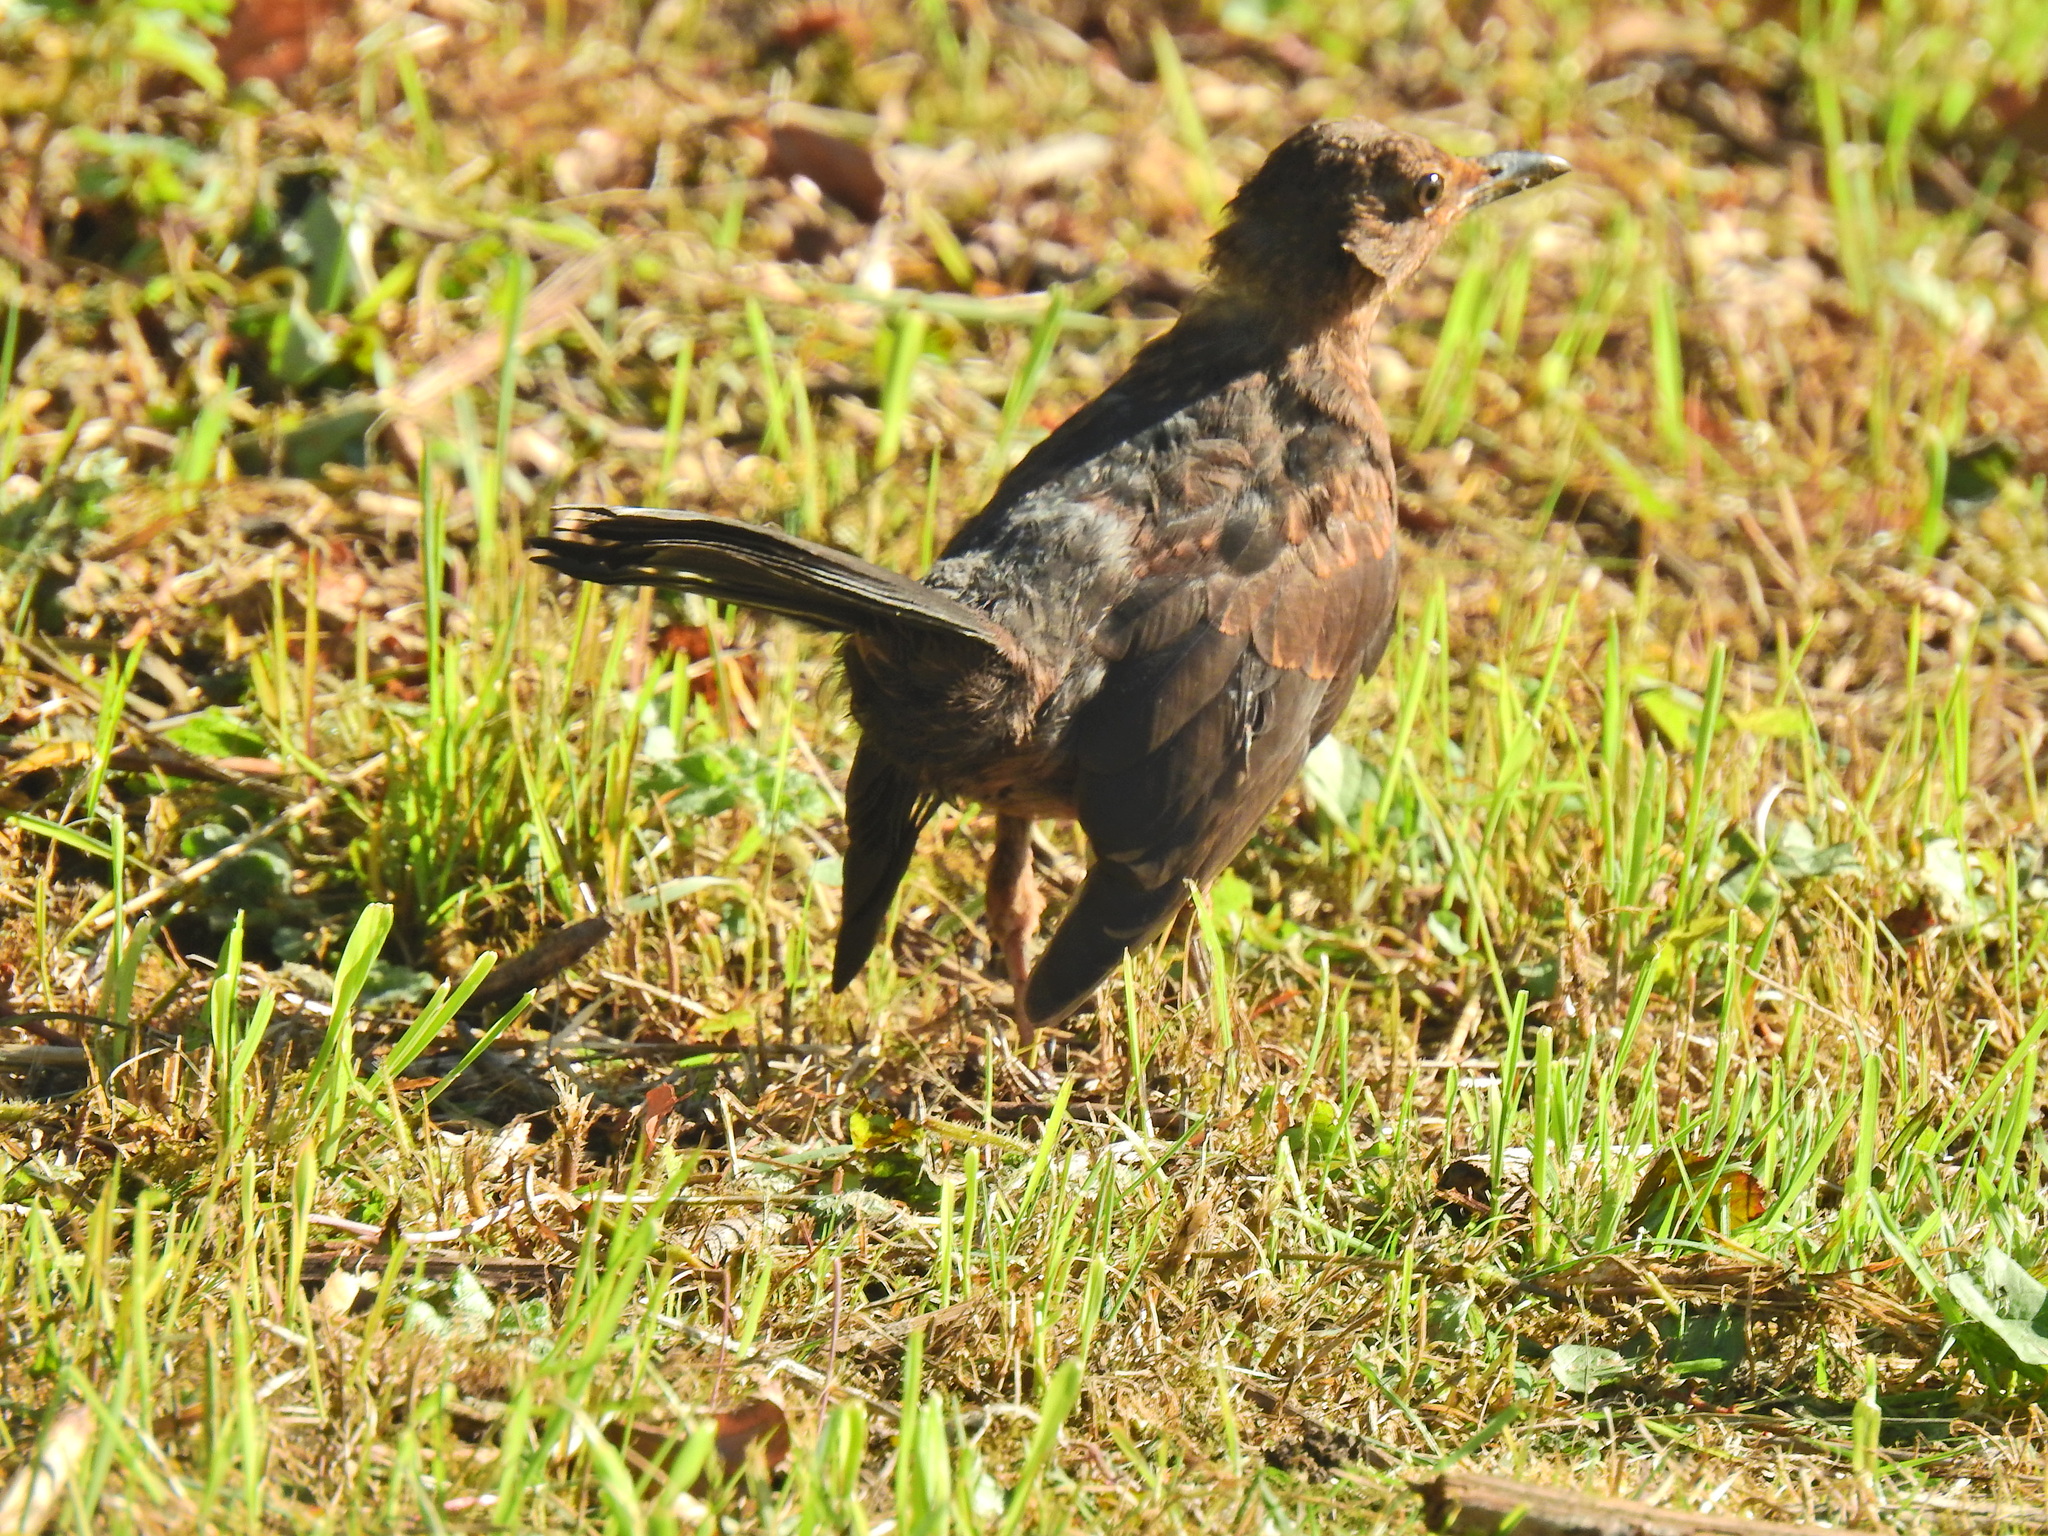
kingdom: Animalia
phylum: Chordata
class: Aves
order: Passeriformes
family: Turdidae
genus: Turdus
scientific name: Turdus merula
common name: Common blackbird
